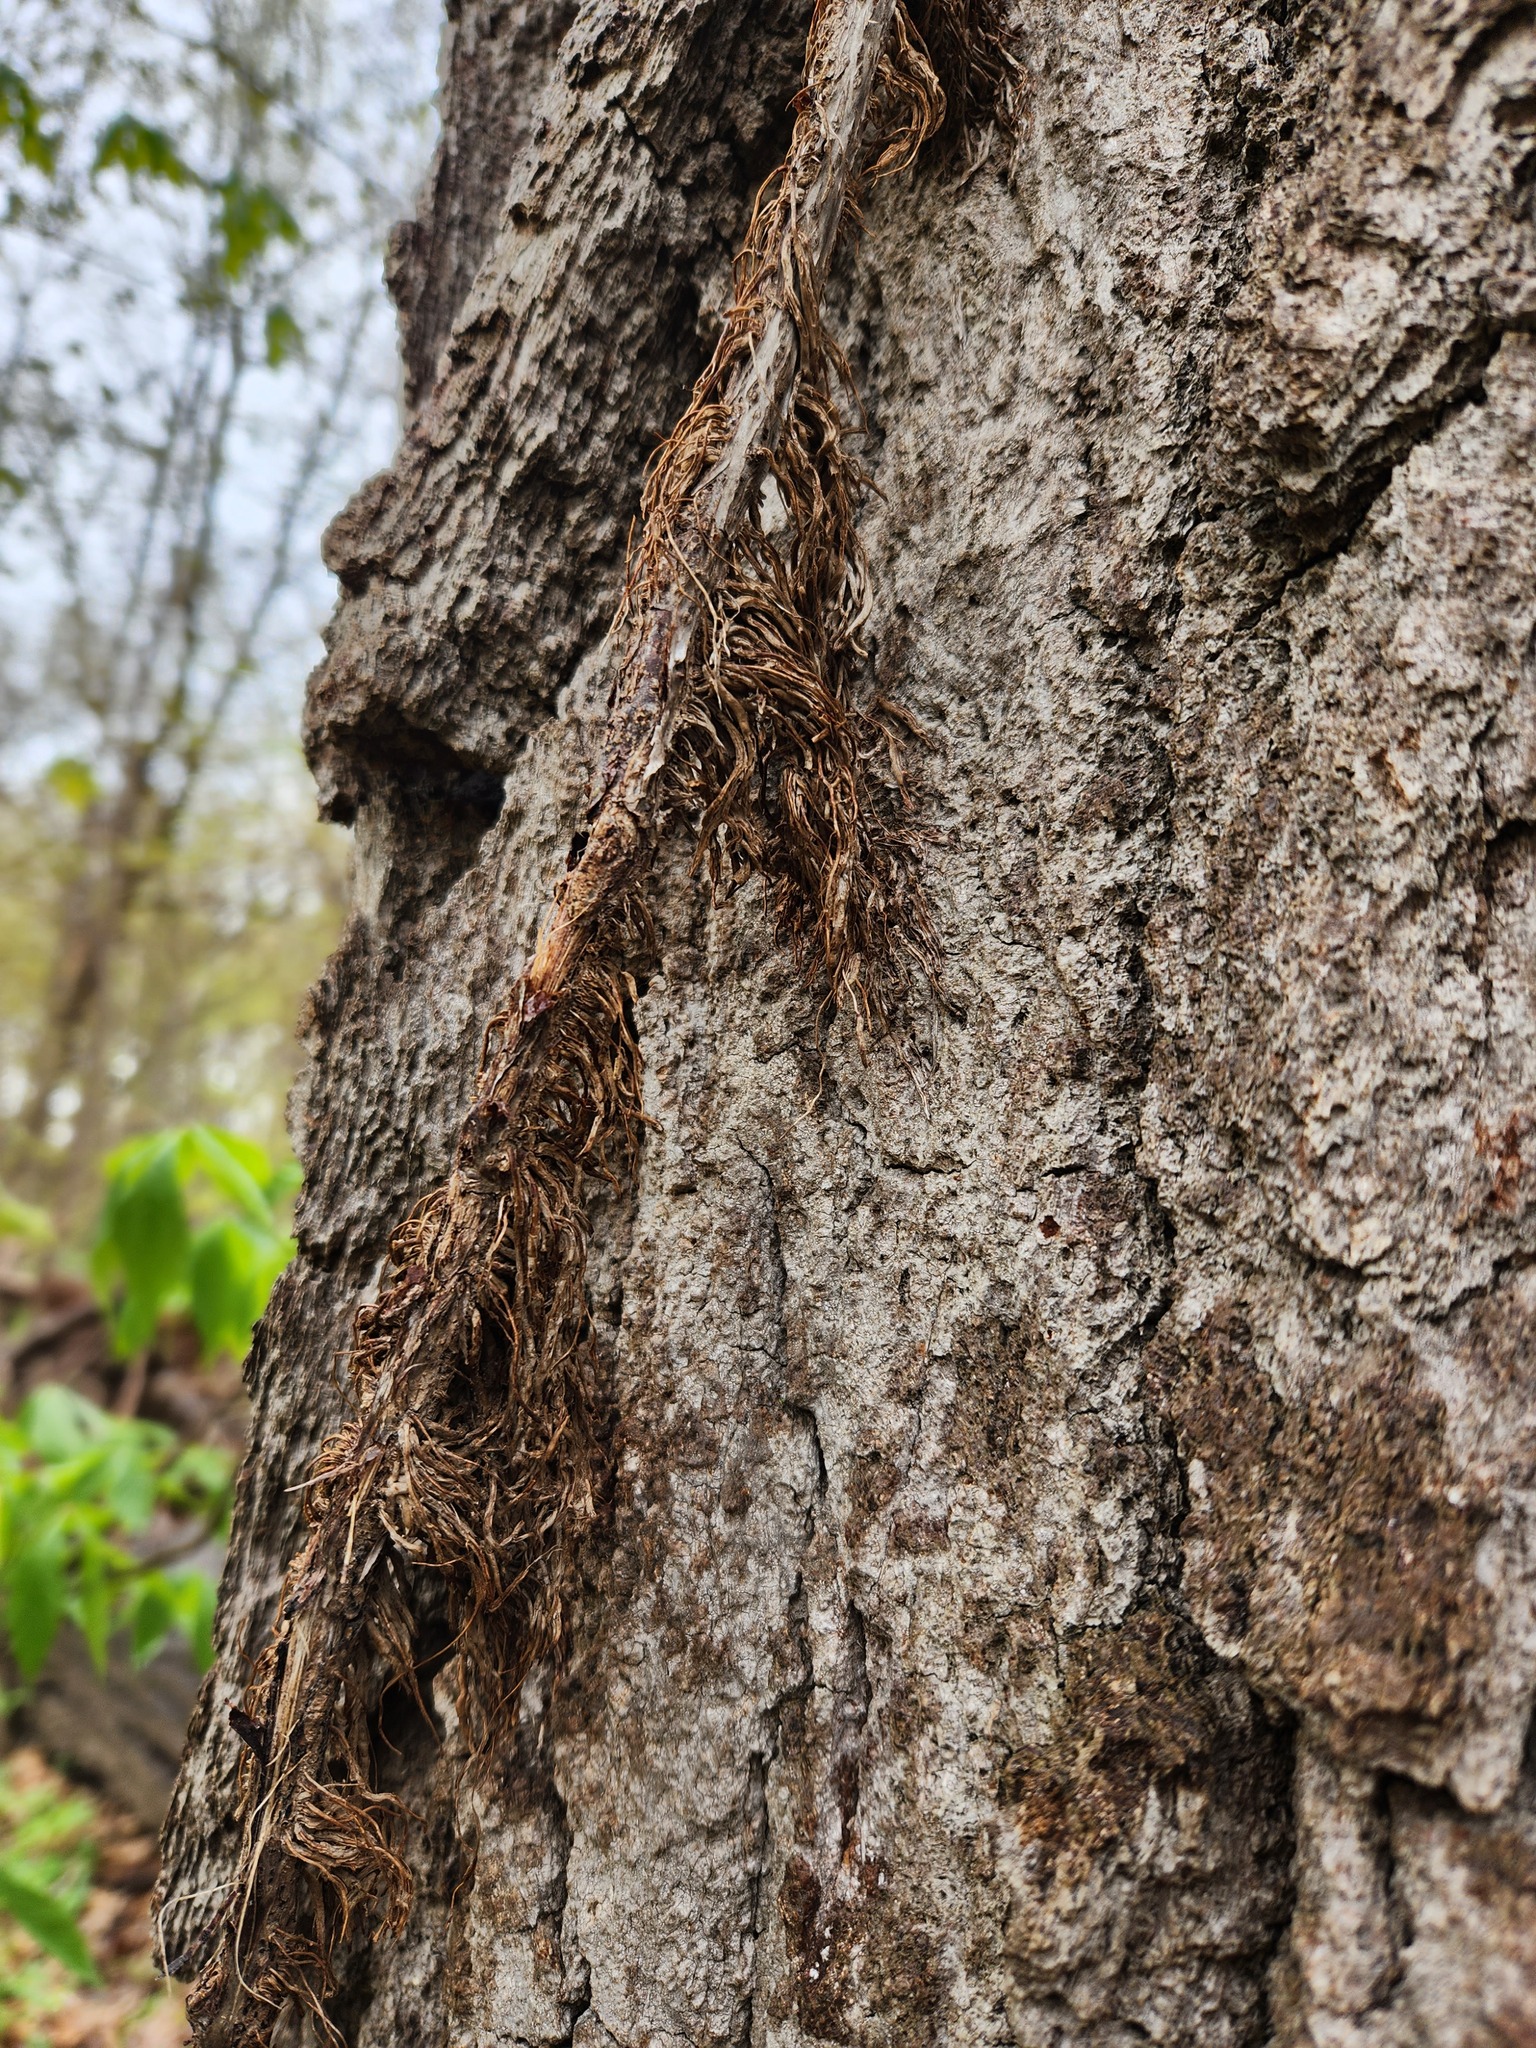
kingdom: Plantae
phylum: Tracheophyta
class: Magnoliopsida
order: Sapindales
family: Anacardiaceae
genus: Toxicodendron
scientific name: Toxicodendron radicans
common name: Poison ivy
